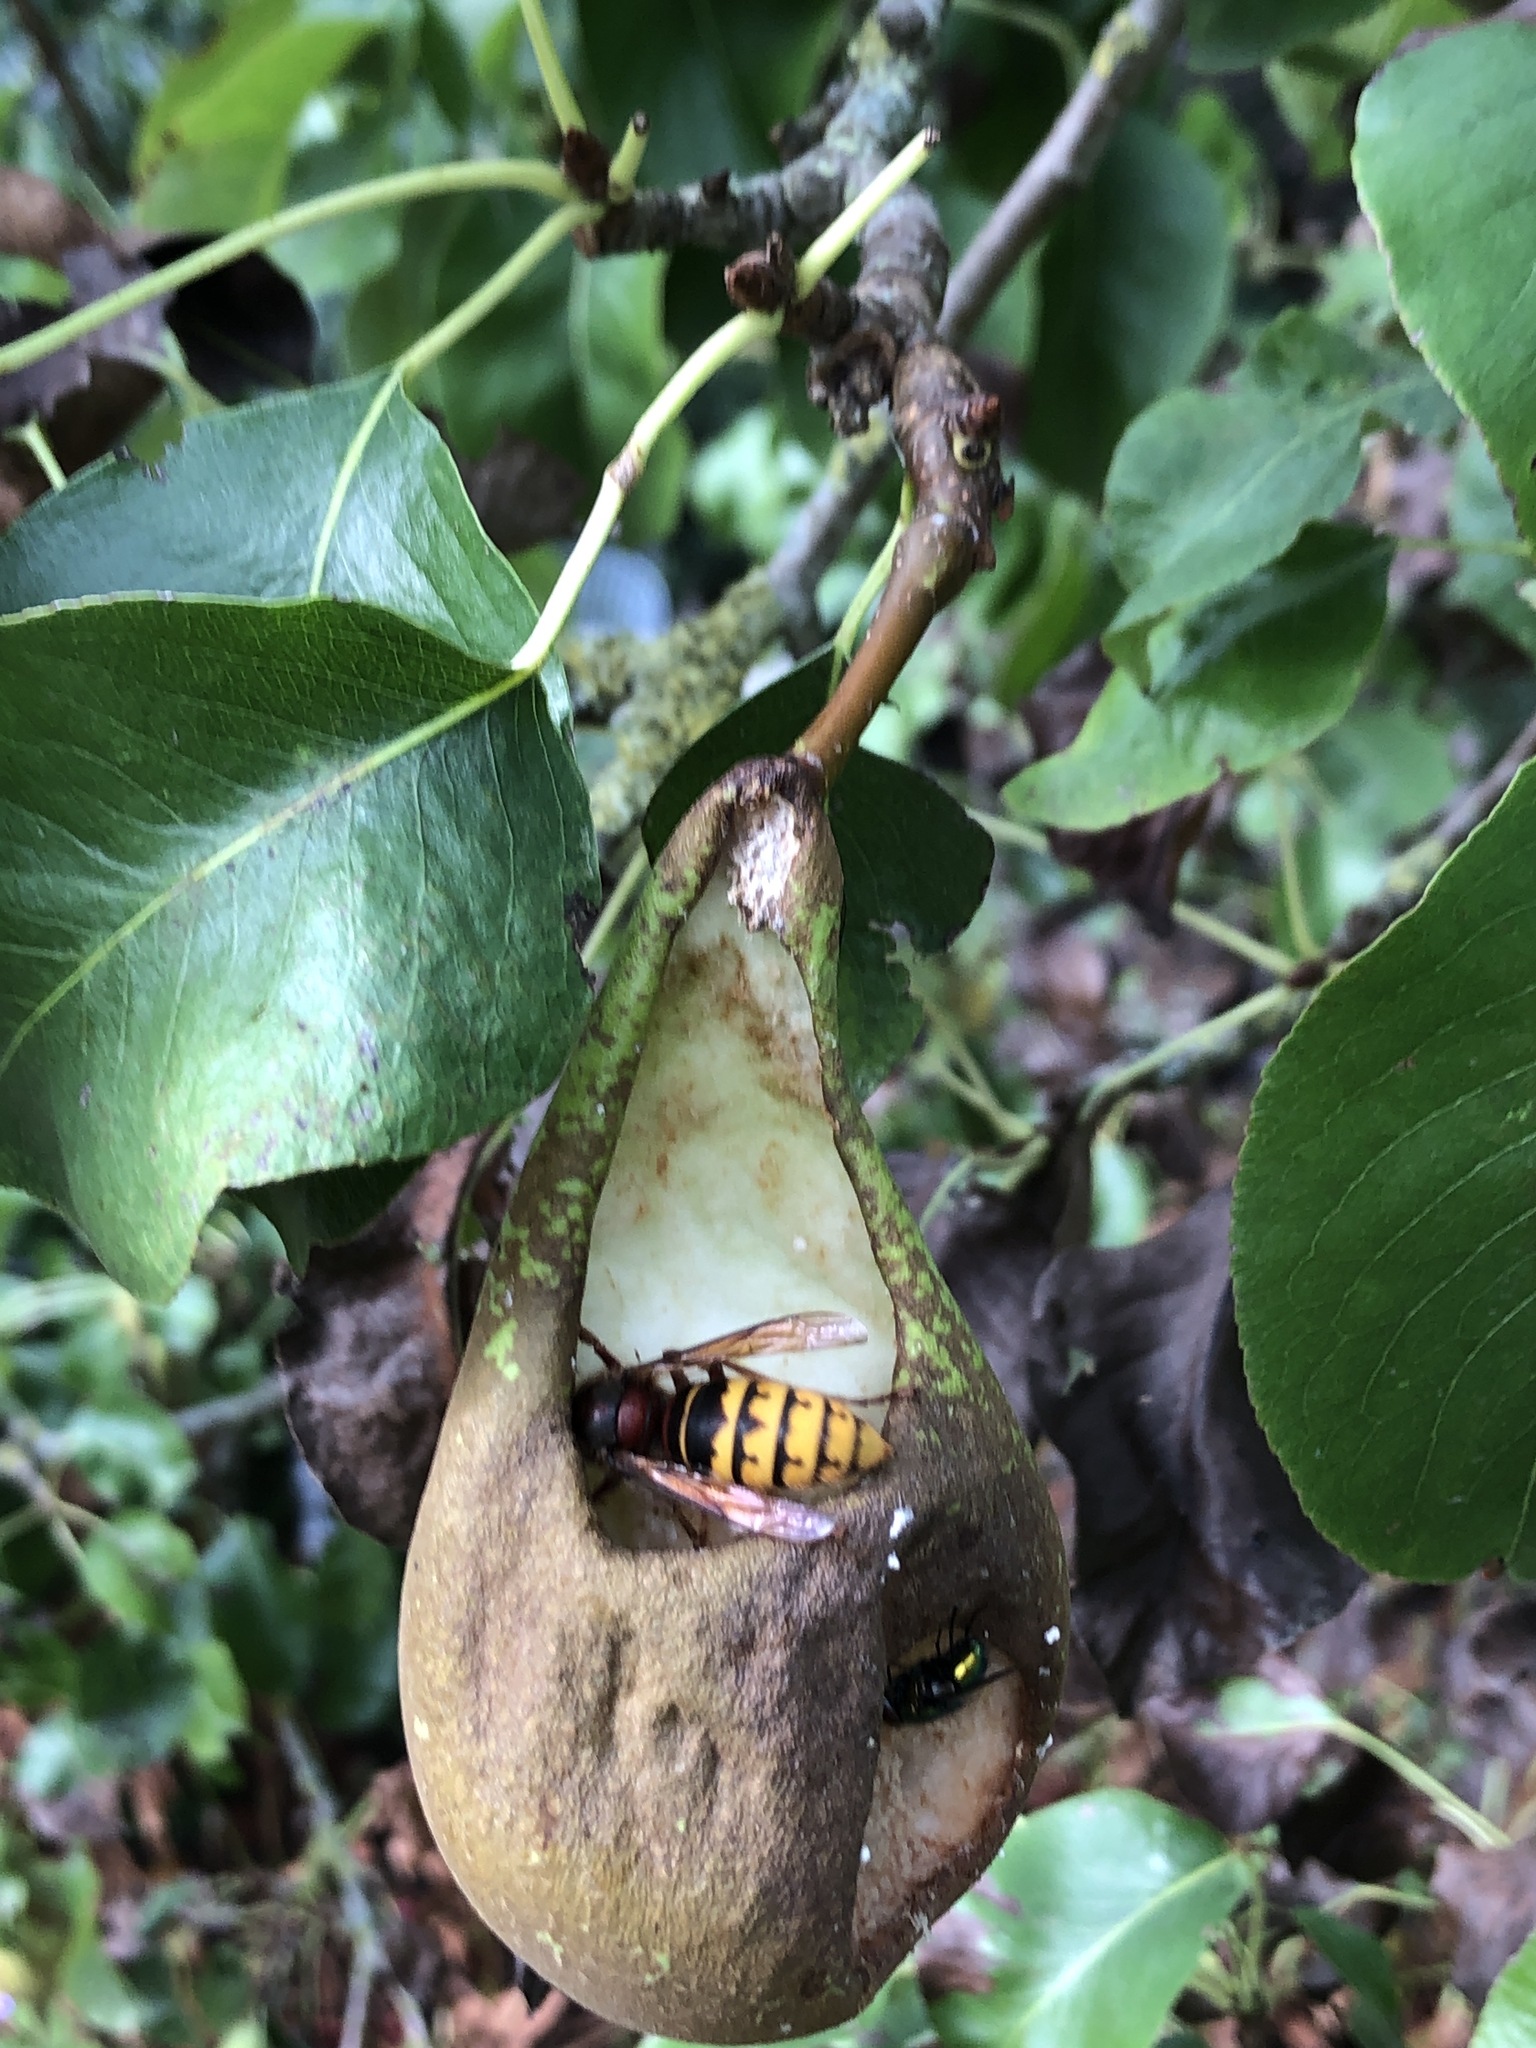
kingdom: Animalia
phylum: Arthropoda
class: Insecta
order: Hymenoptera
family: Vespidae
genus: Vespa
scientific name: Vespa crabro
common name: Hornet
